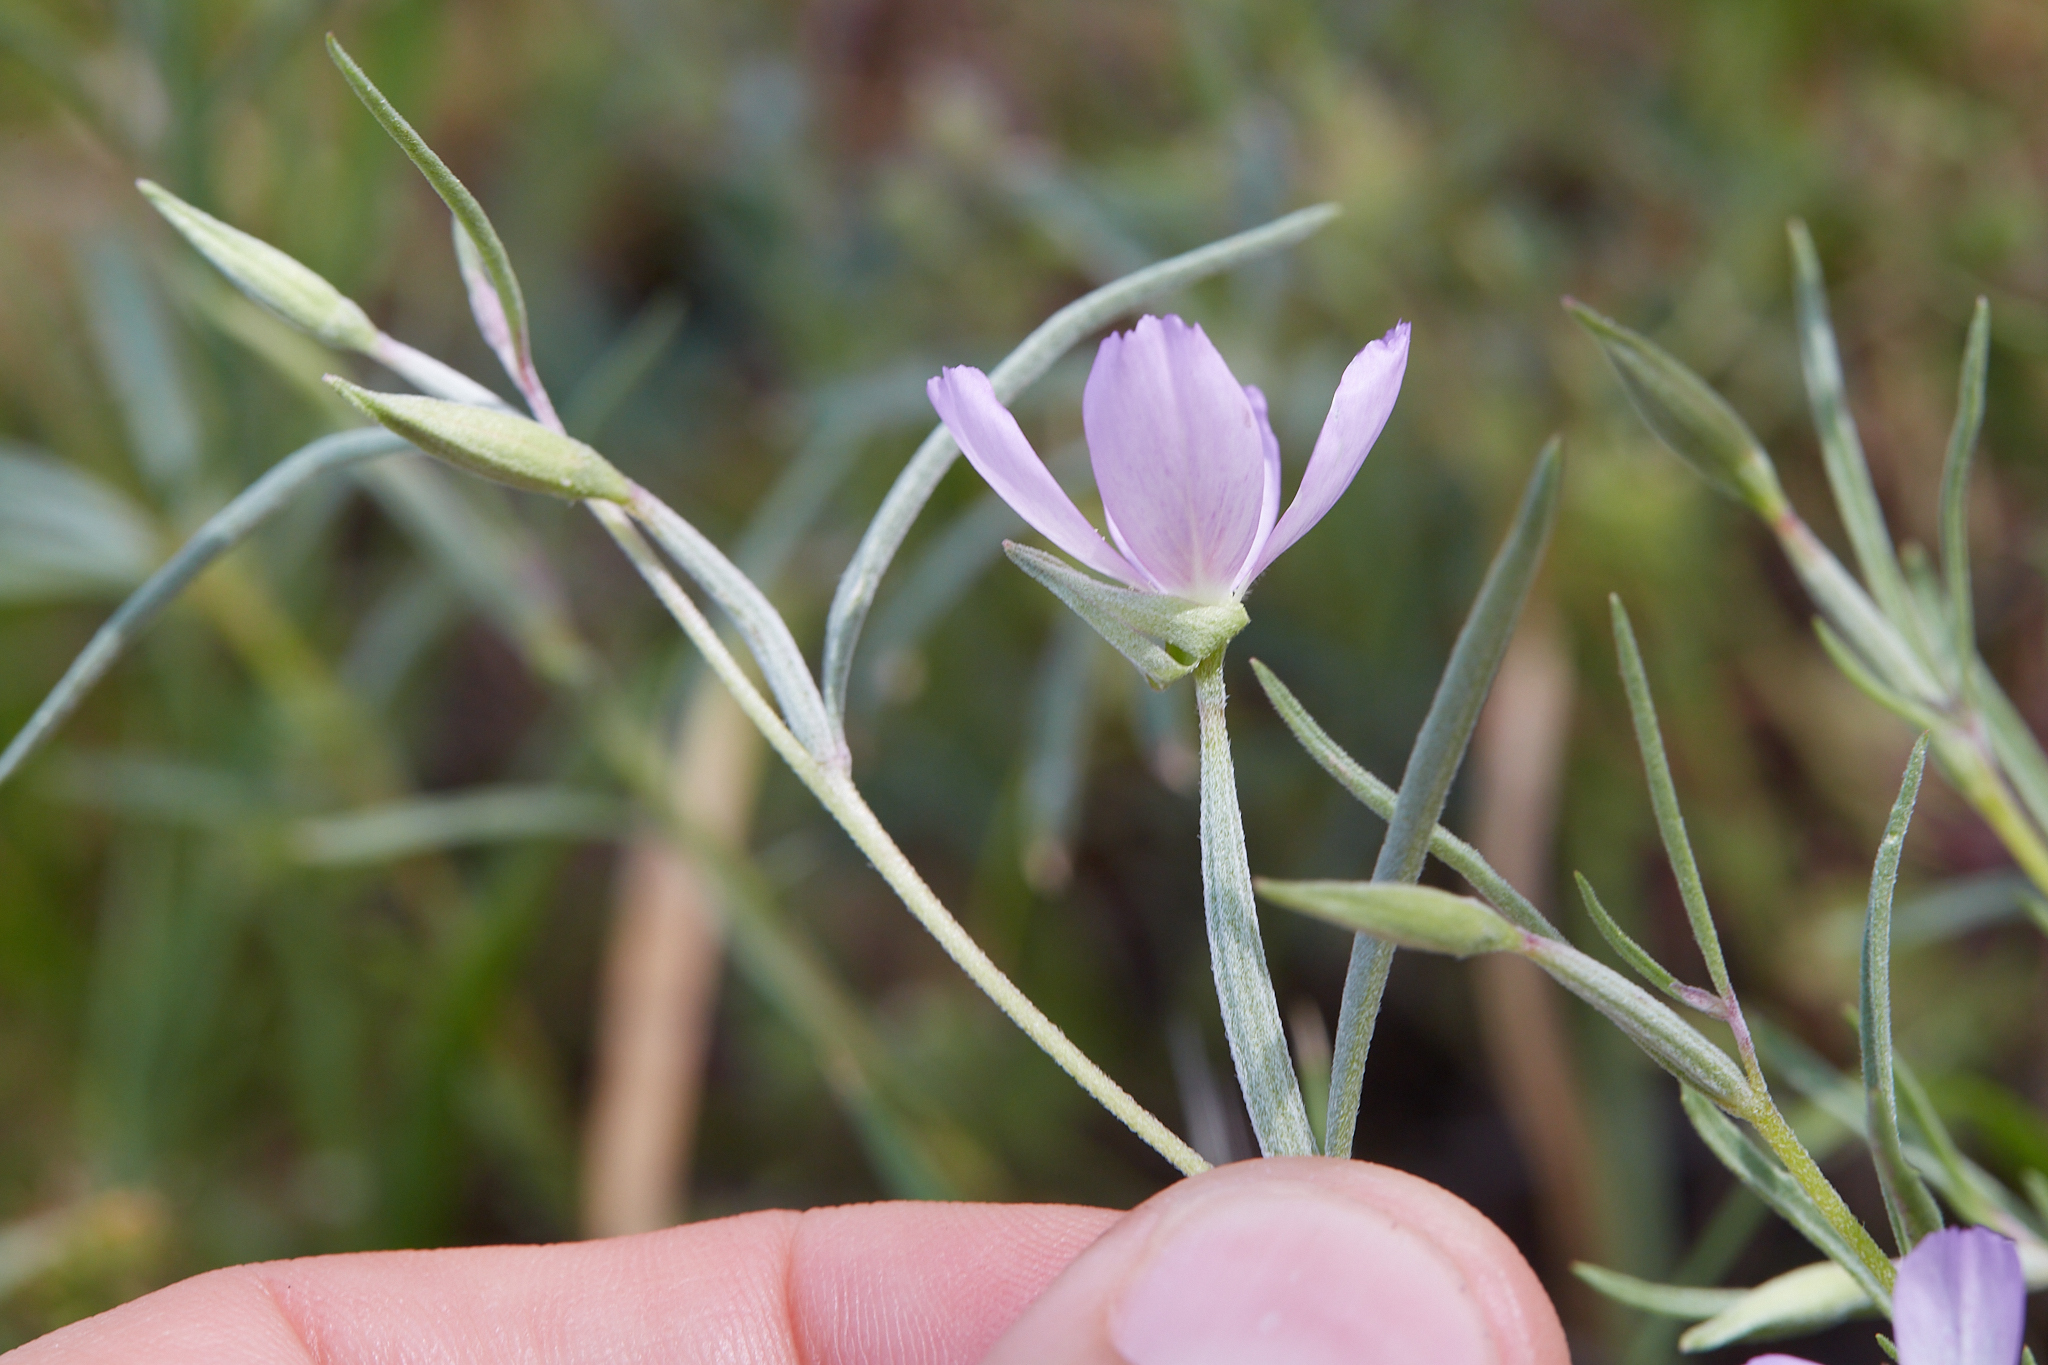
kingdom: Plantae
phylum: Tracheophyta
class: Magnoliopsida
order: Myrtales
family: Onagraceae
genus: Clarkia
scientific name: Clarkia affinis
